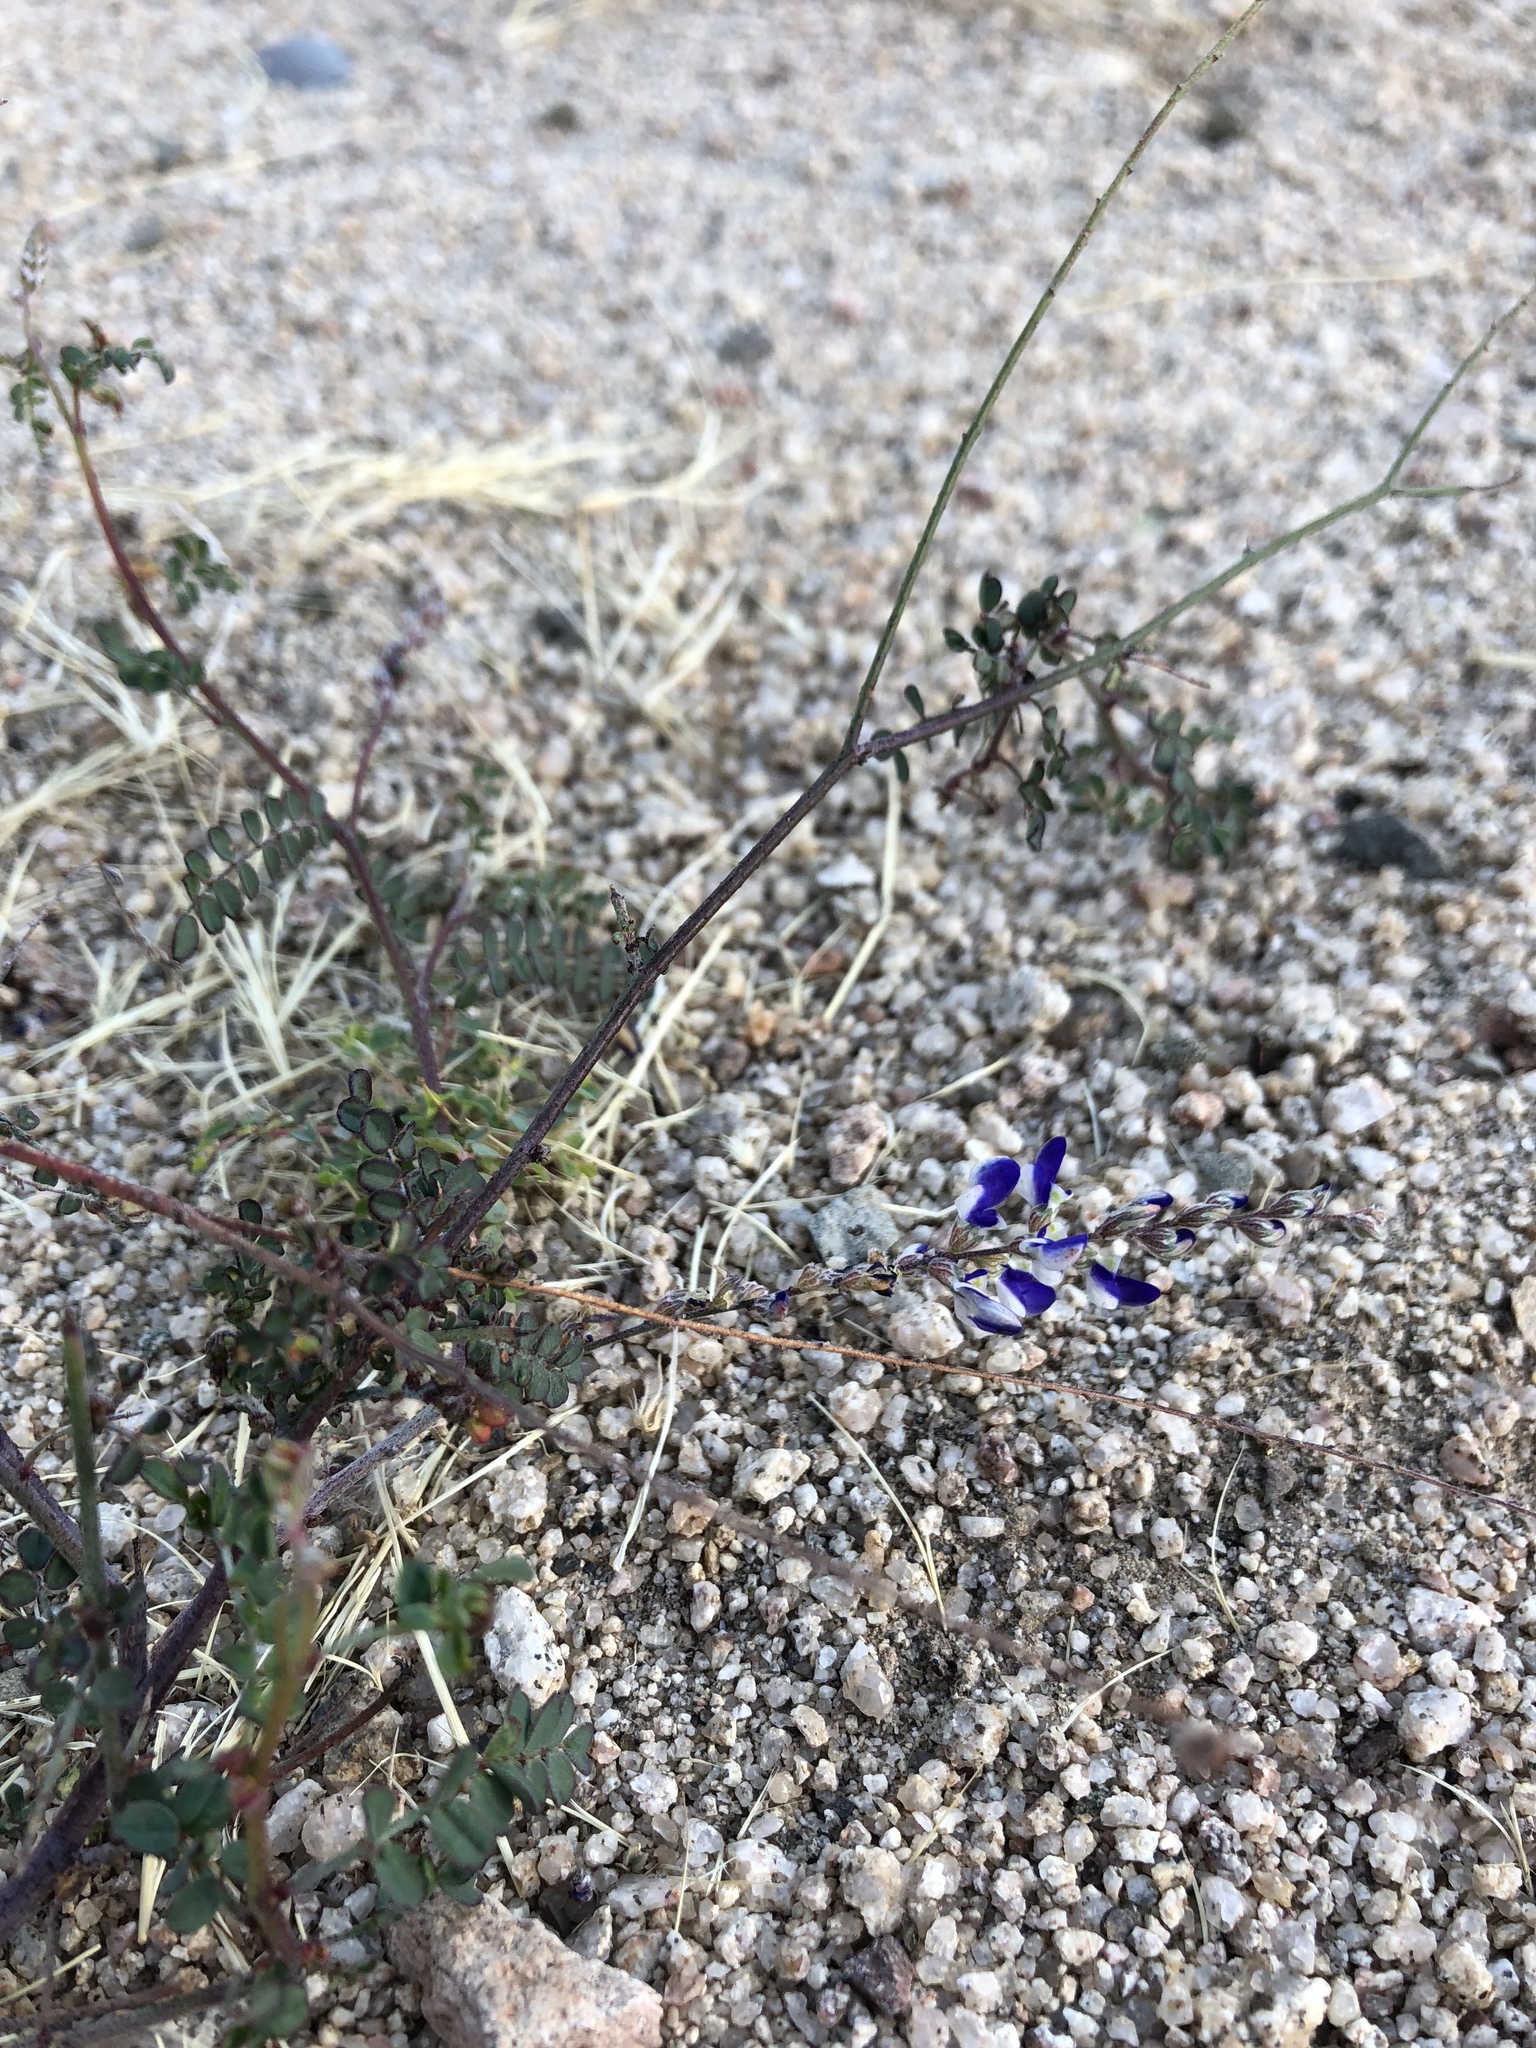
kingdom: Plantae
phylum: Tracheophyta
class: Magnoliopsida
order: Fabales
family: Fabaceae
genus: Marina
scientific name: Marina parryi
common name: Parry's marina
